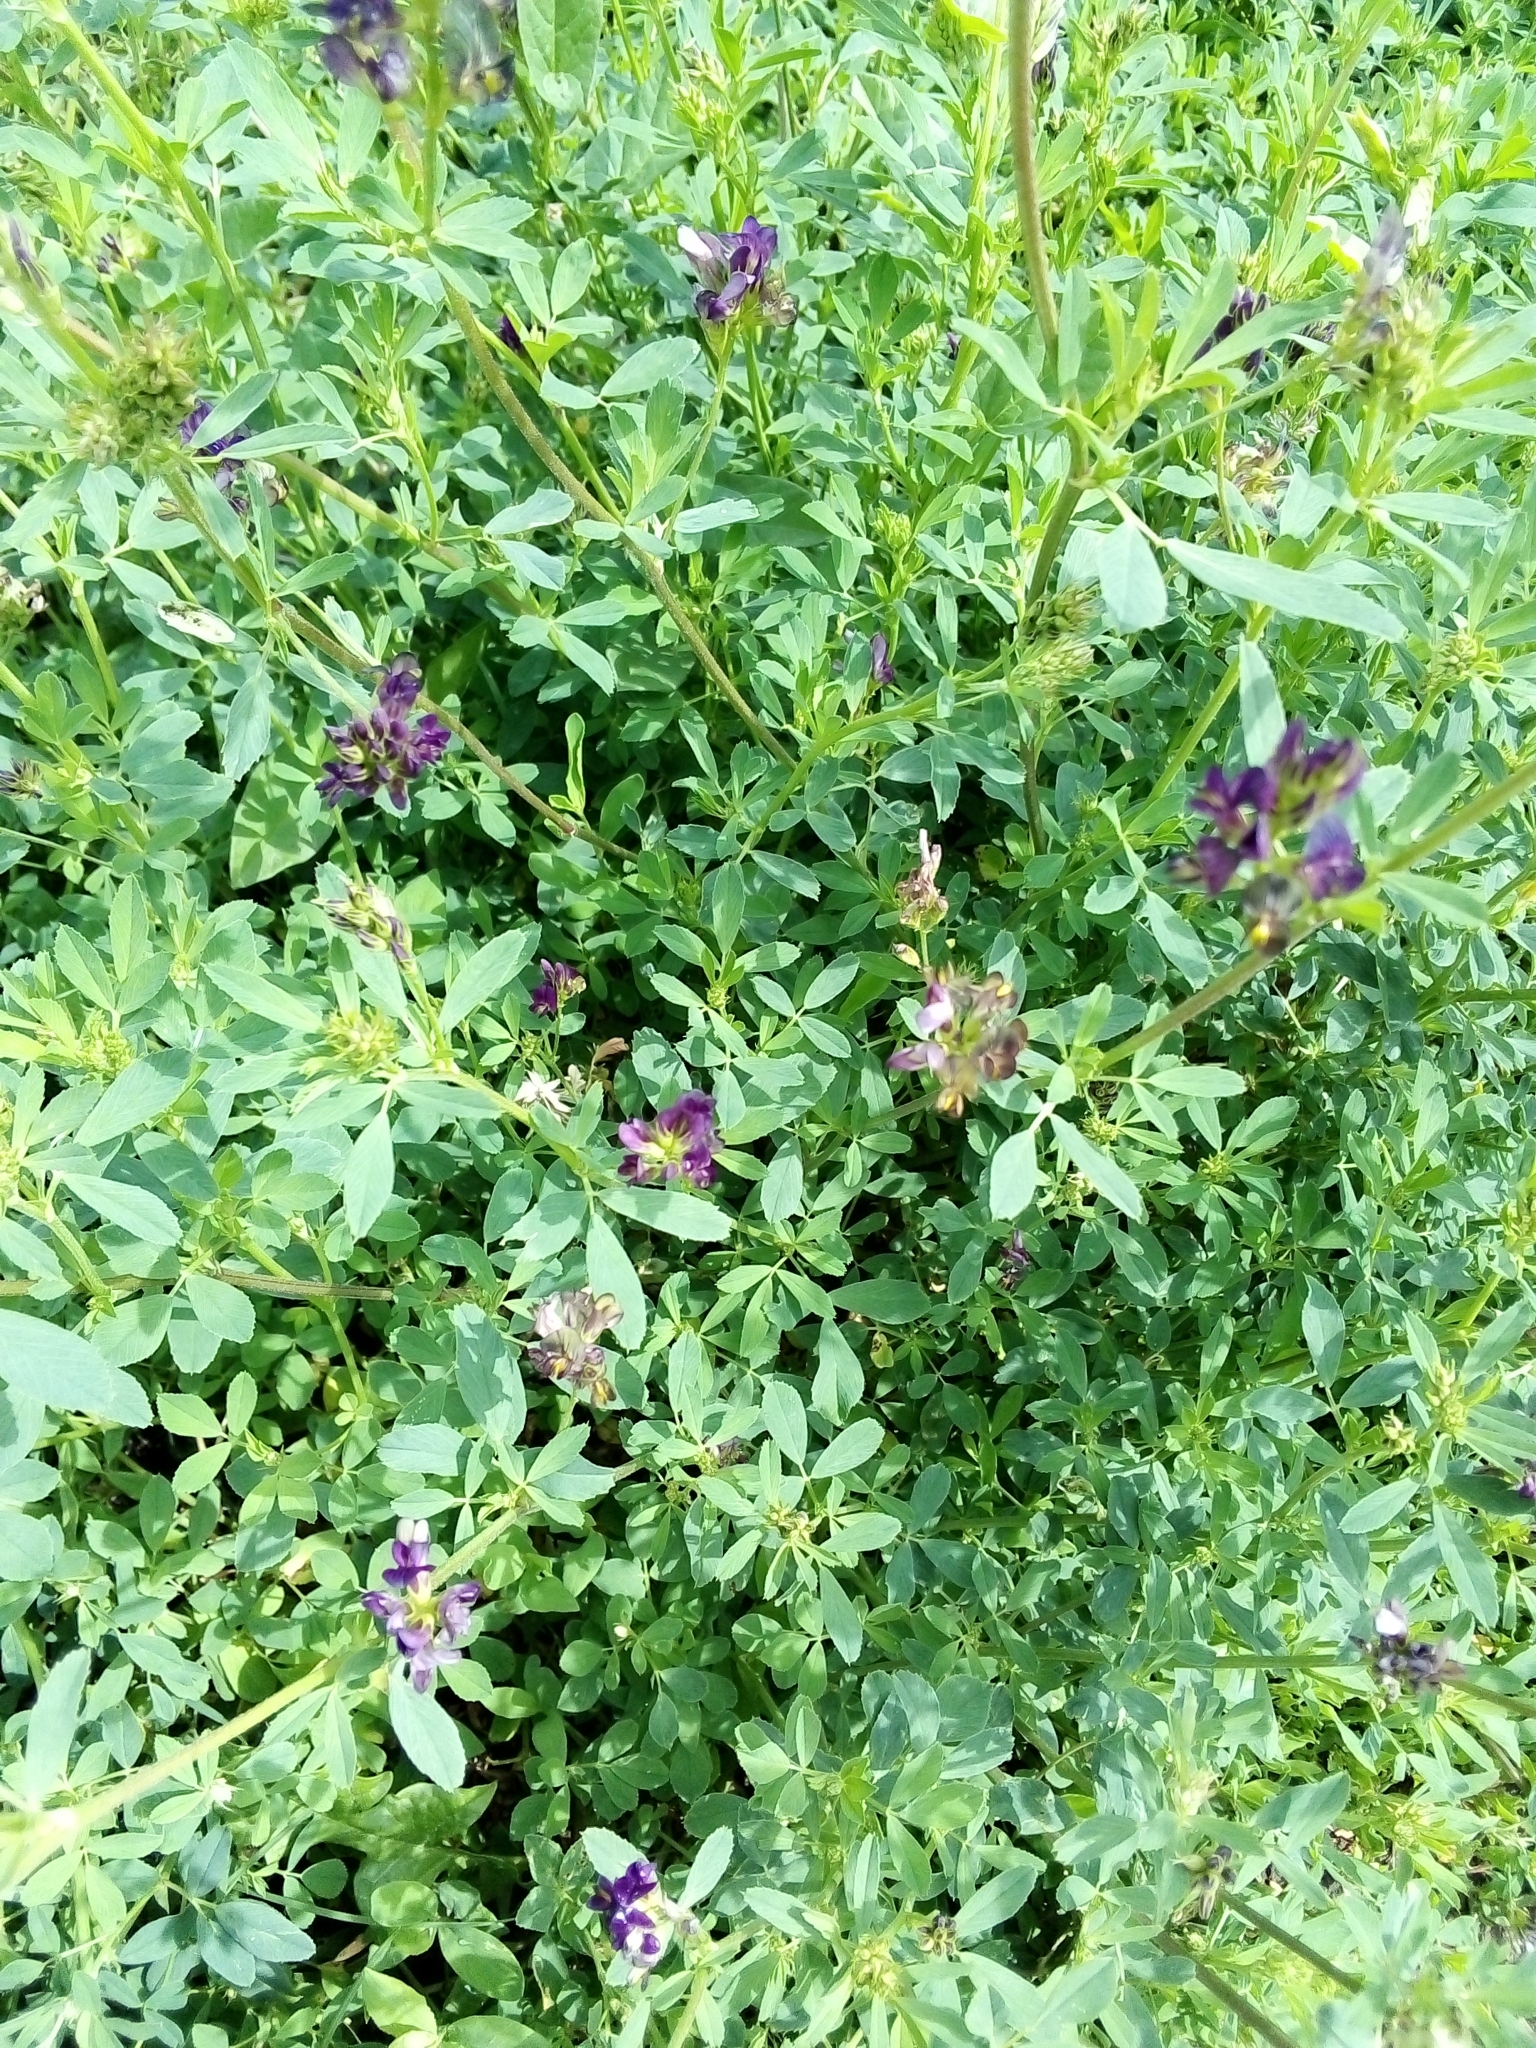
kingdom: Plantae
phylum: Tracheophyta
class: Magnoliopsida
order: Fabales
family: Fabaceae
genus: Medicago
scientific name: Medicago varia
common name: Sand lucerne
